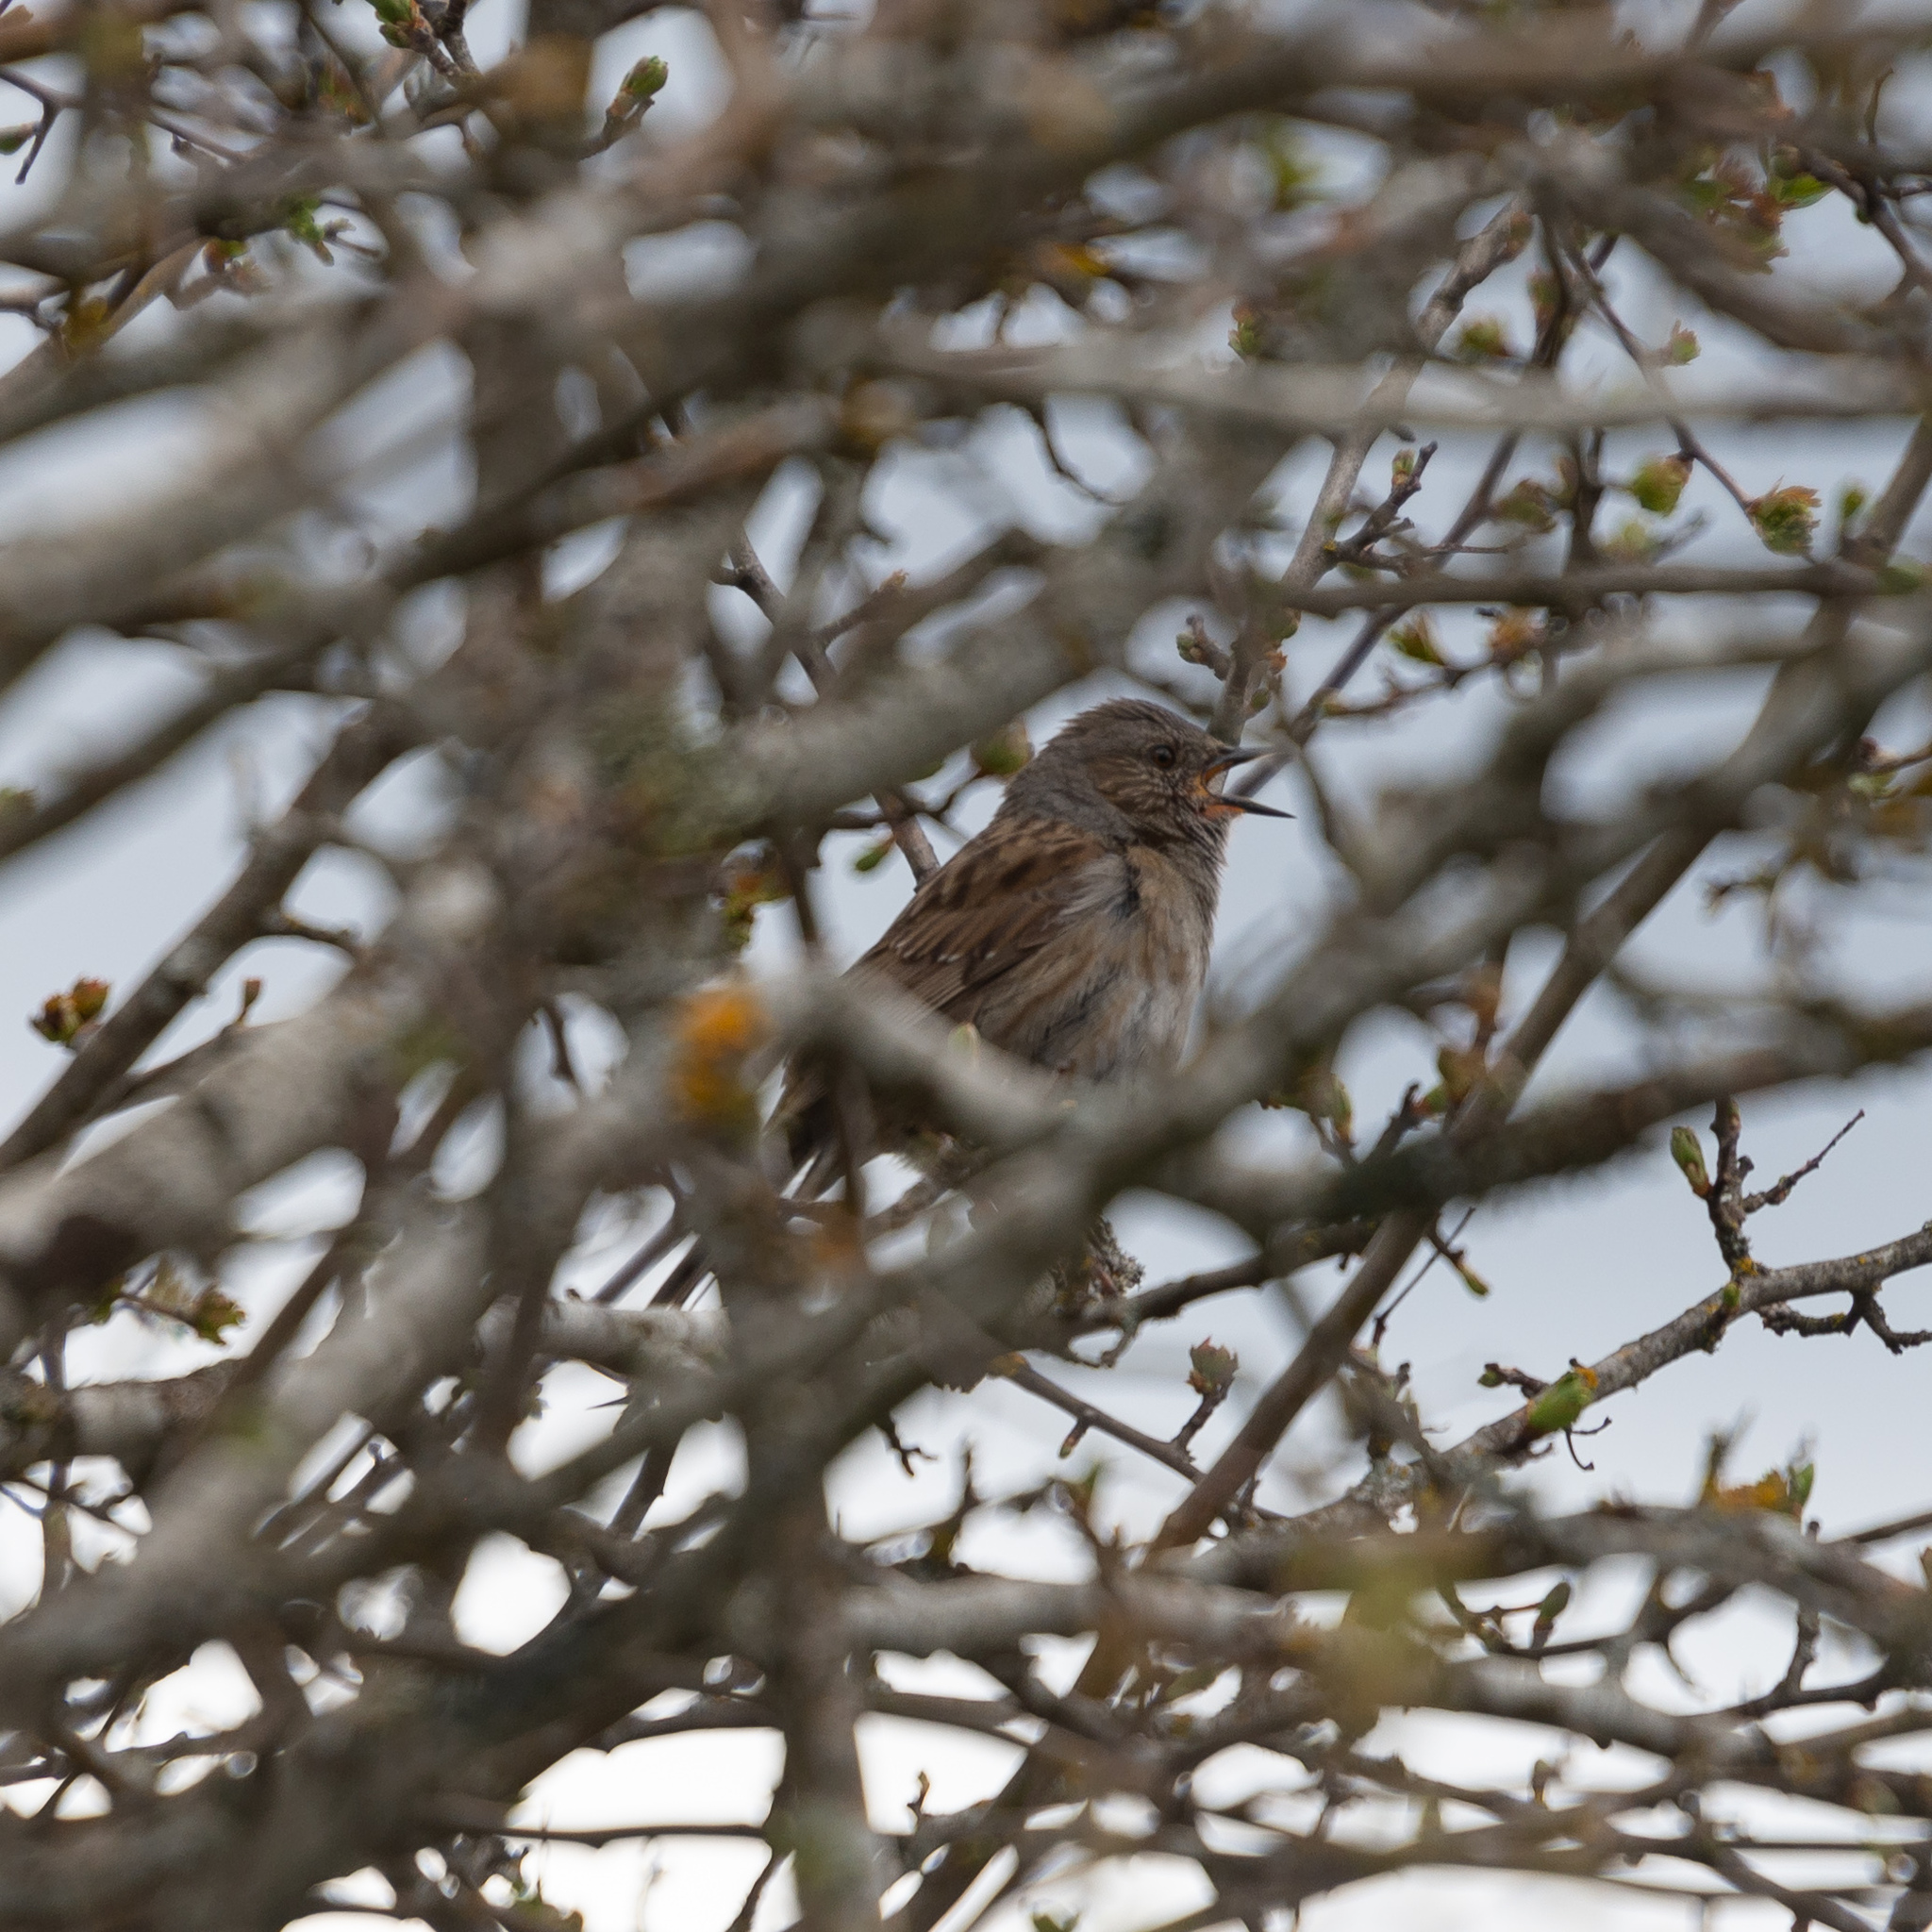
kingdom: Animalia
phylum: Chordata
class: Aves
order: Passeriformes
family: Prunellidae
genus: Prunella
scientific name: Prunella modularis
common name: Dunnock
